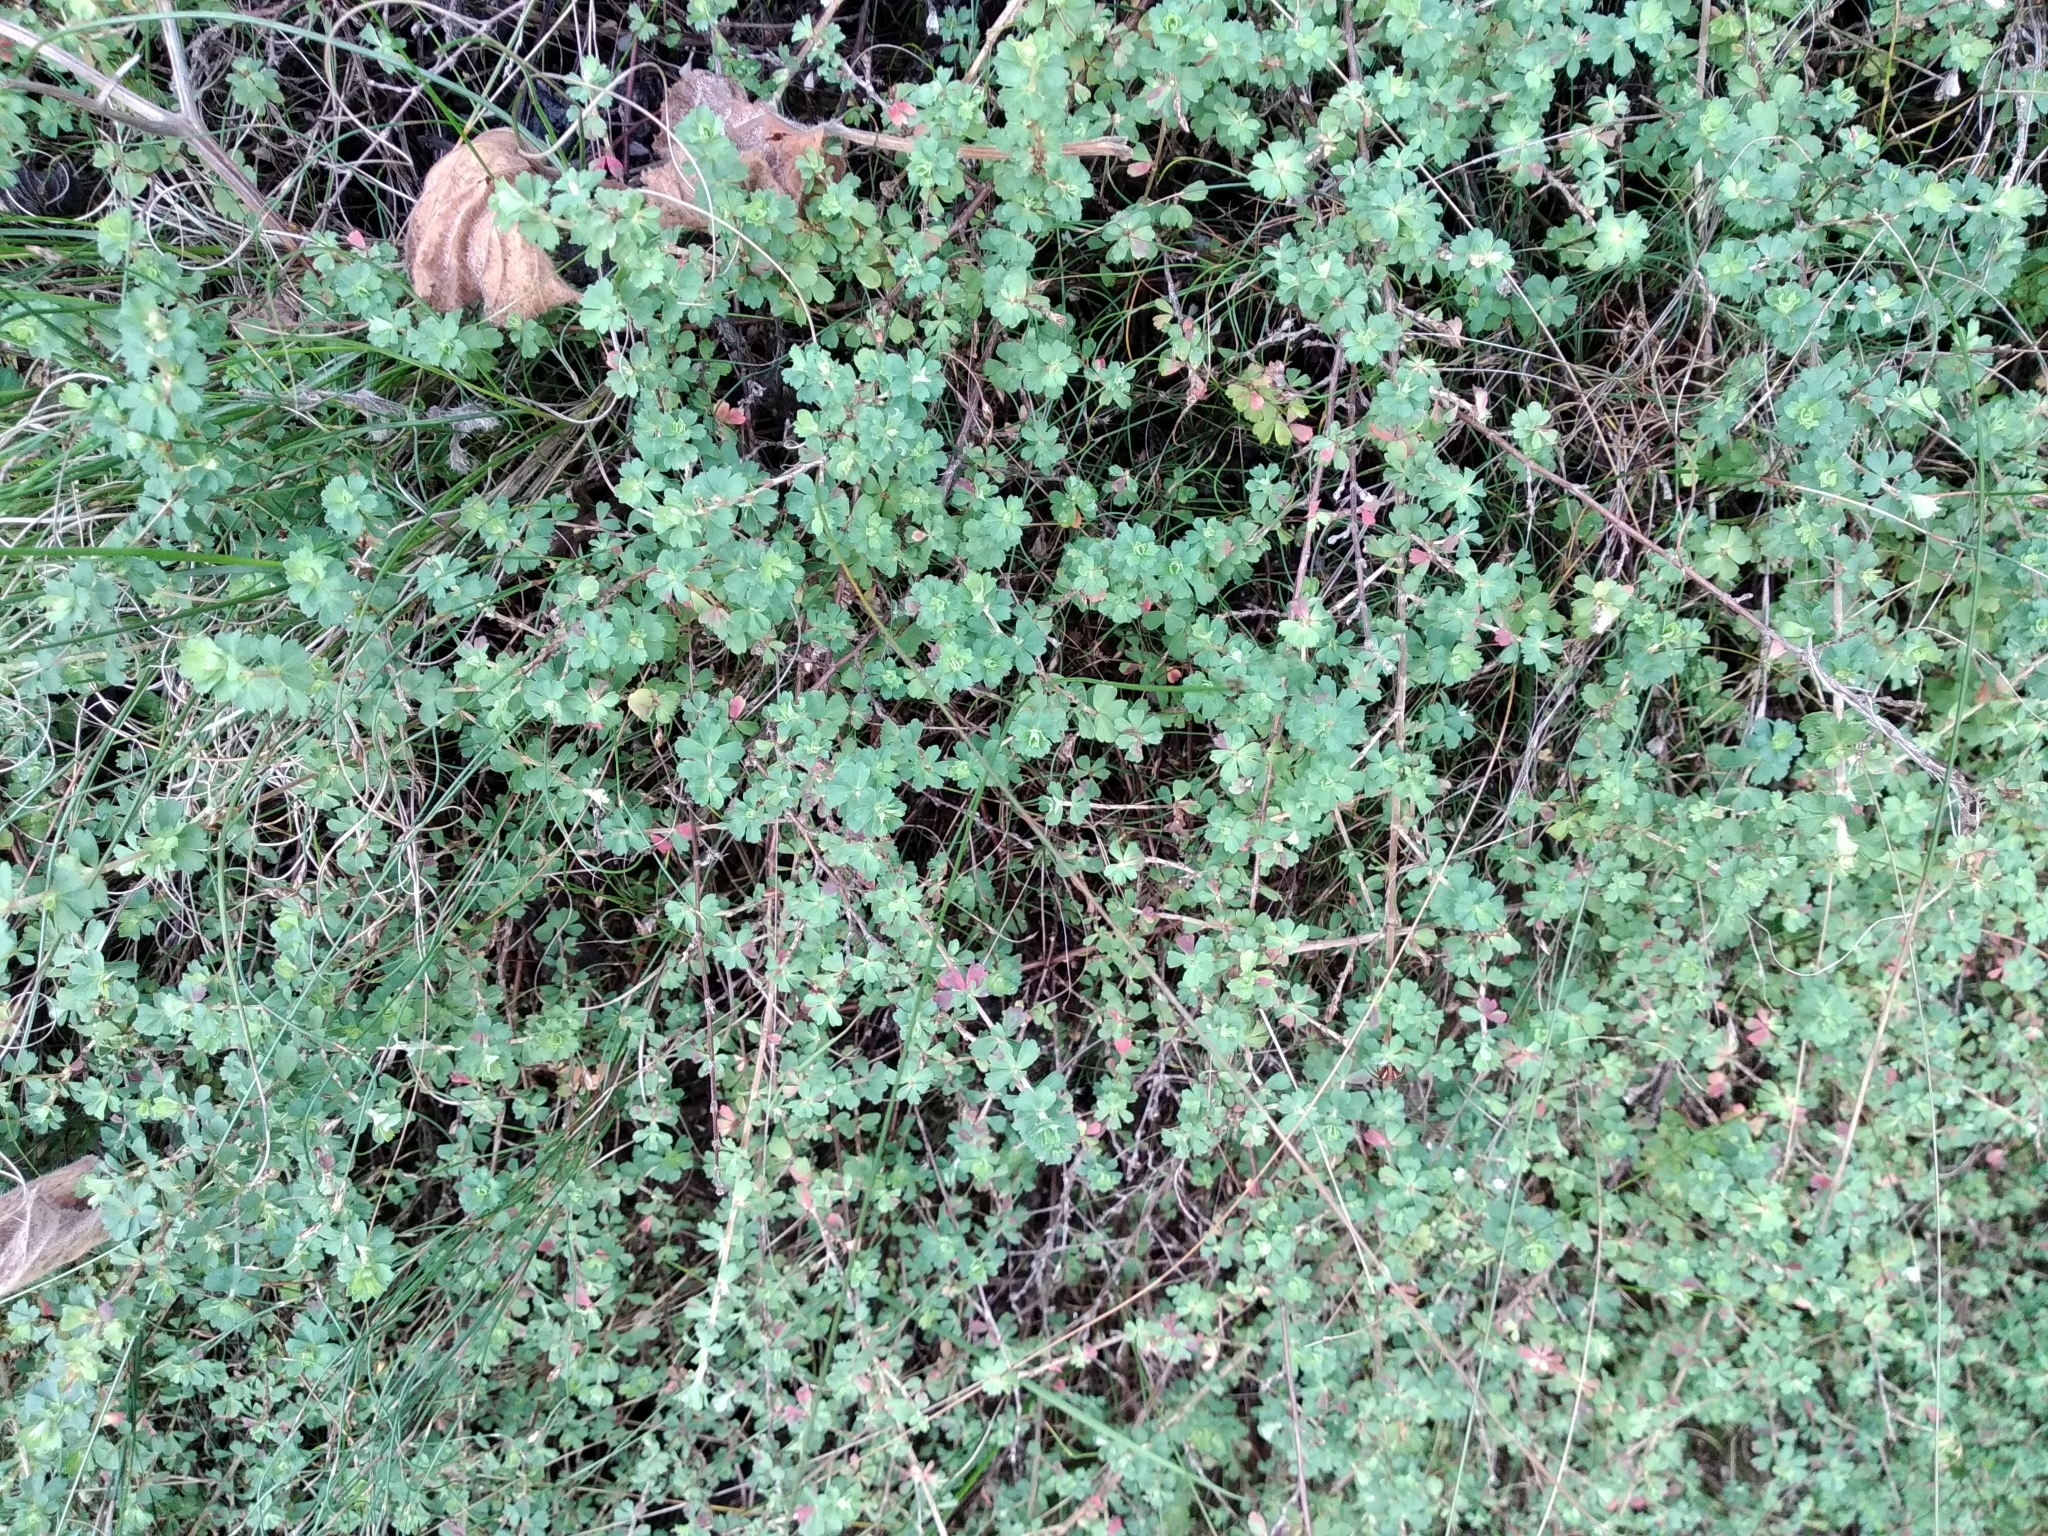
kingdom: Plantae
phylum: Tracheophyta
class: Magnoliopsida
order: Rosales
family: Rosaceae
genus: Cliffortia
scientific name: Cliffortia dentata
